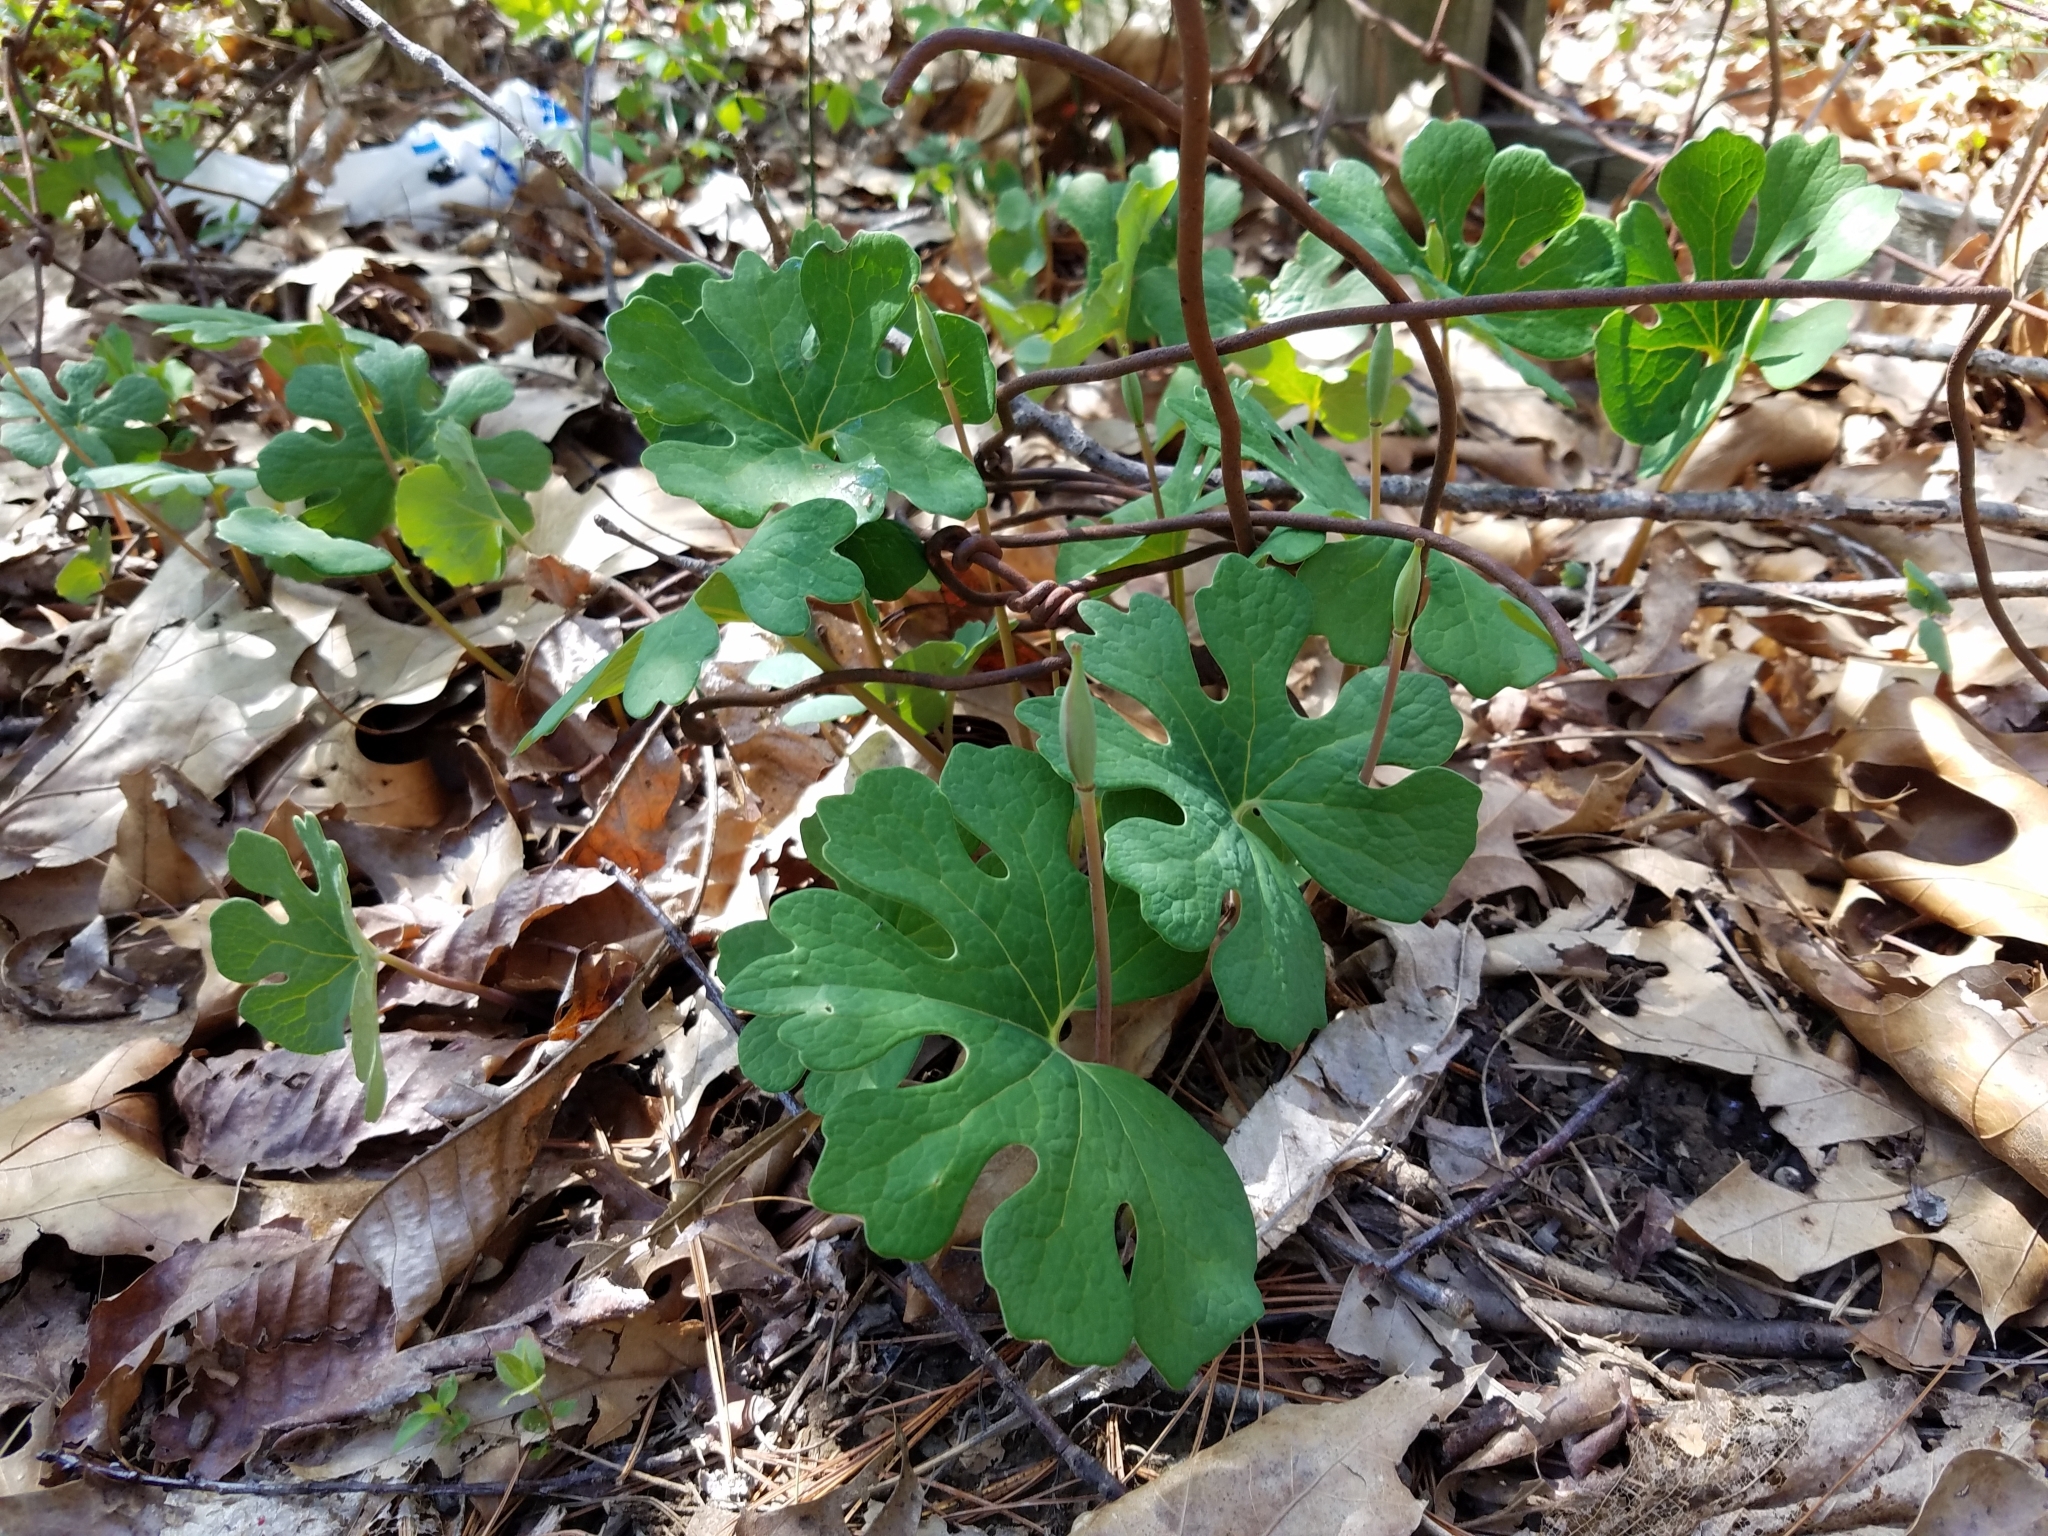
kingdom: Plantae
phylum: Tracheophyta
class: Magnoliopsida
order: Ranunculales
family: Papaveraceae
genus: Sanguinaria
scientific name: Sanguinaria canadensis
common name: Bloodroot
